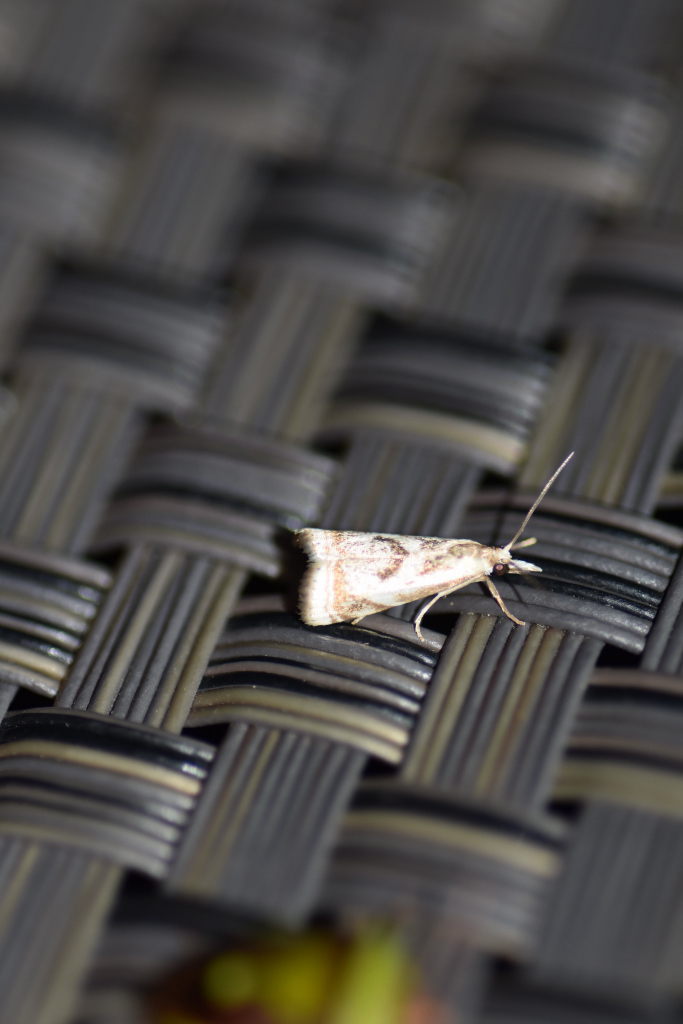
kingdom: Animalia
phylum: Arthropoda
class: Insecta
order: Lepidoptera
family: Crambidae
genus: Microcrambus
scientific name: Microcrambus elegans
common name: Elegant grass-veneer
